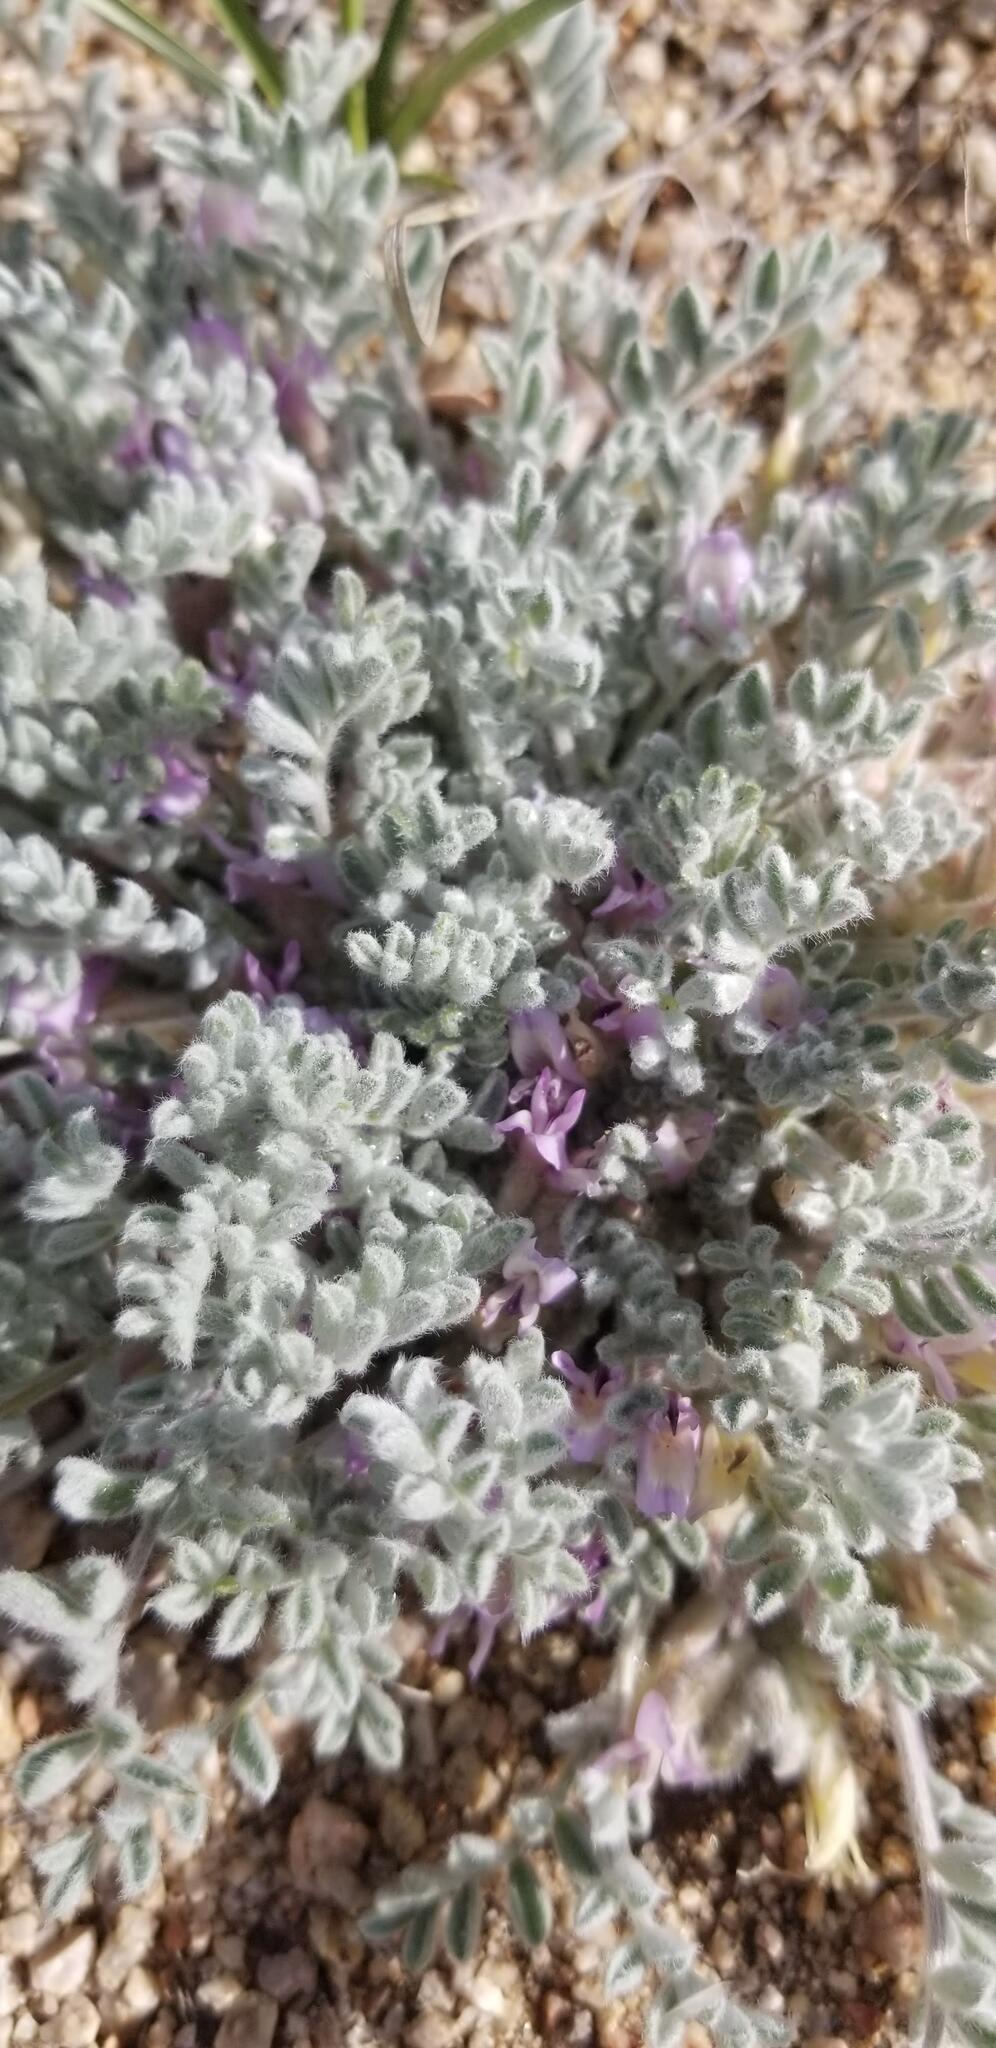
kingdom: Plantae
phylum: Tracheophyta
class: Magnoliopsida
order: Fabales
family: Fabaceae
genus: Astragalus
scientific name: Astragalus subvestitus
